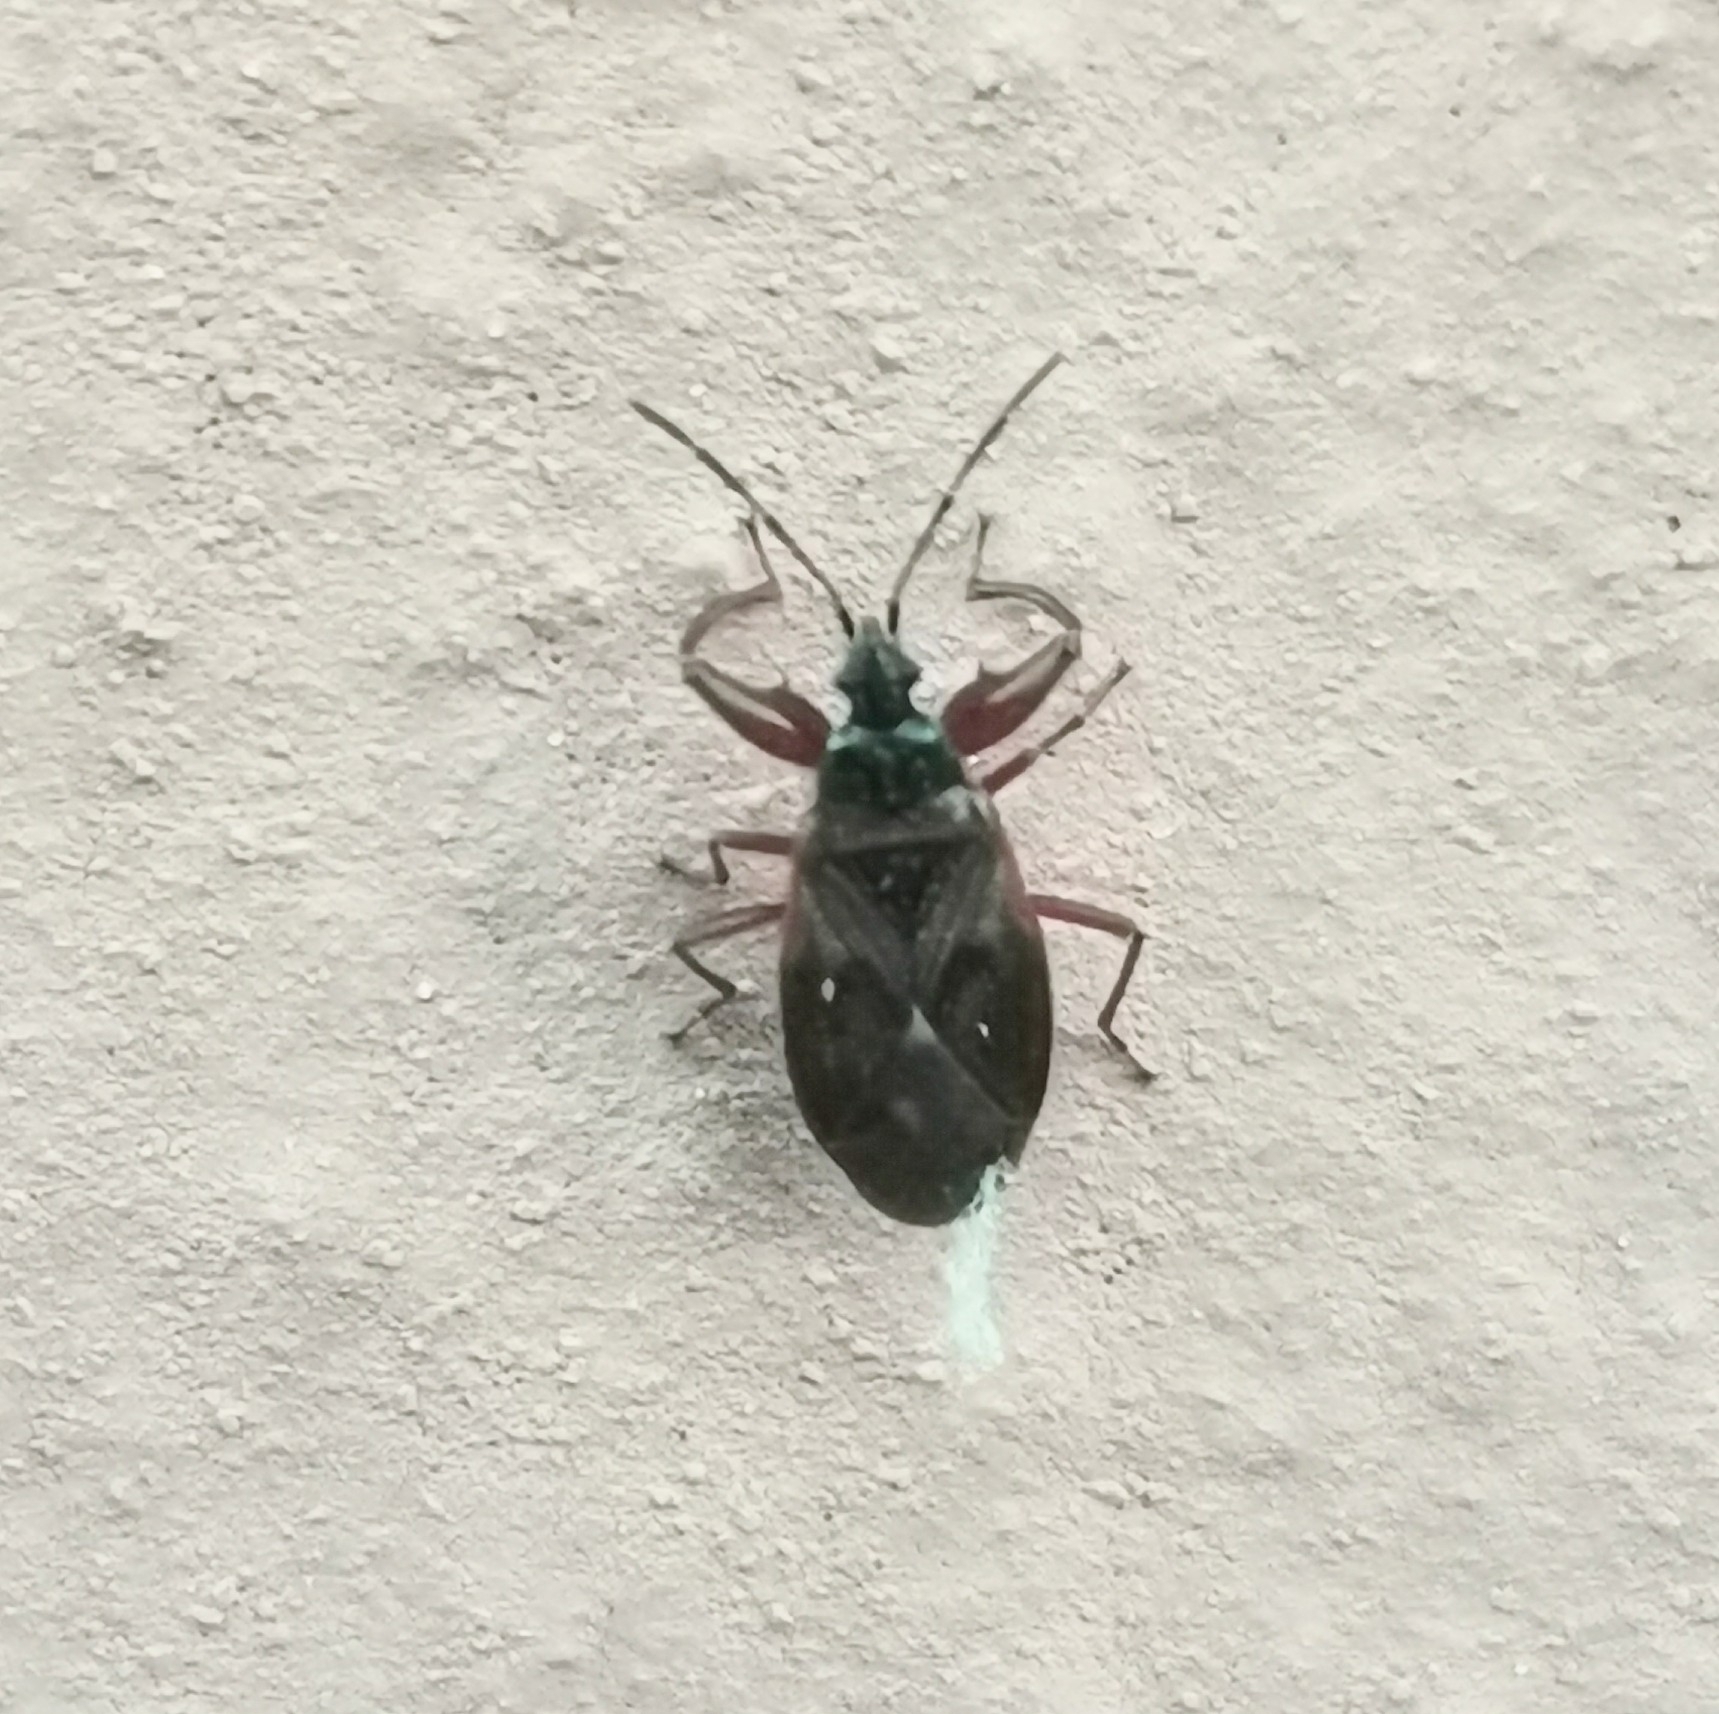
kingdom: Animalia
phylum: Arthropoda
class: Insecta
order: Hemiptera
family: Rhyparochromidae
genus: Gastrodes
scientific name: Gastrodes abietum
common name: Spruce cone bug
